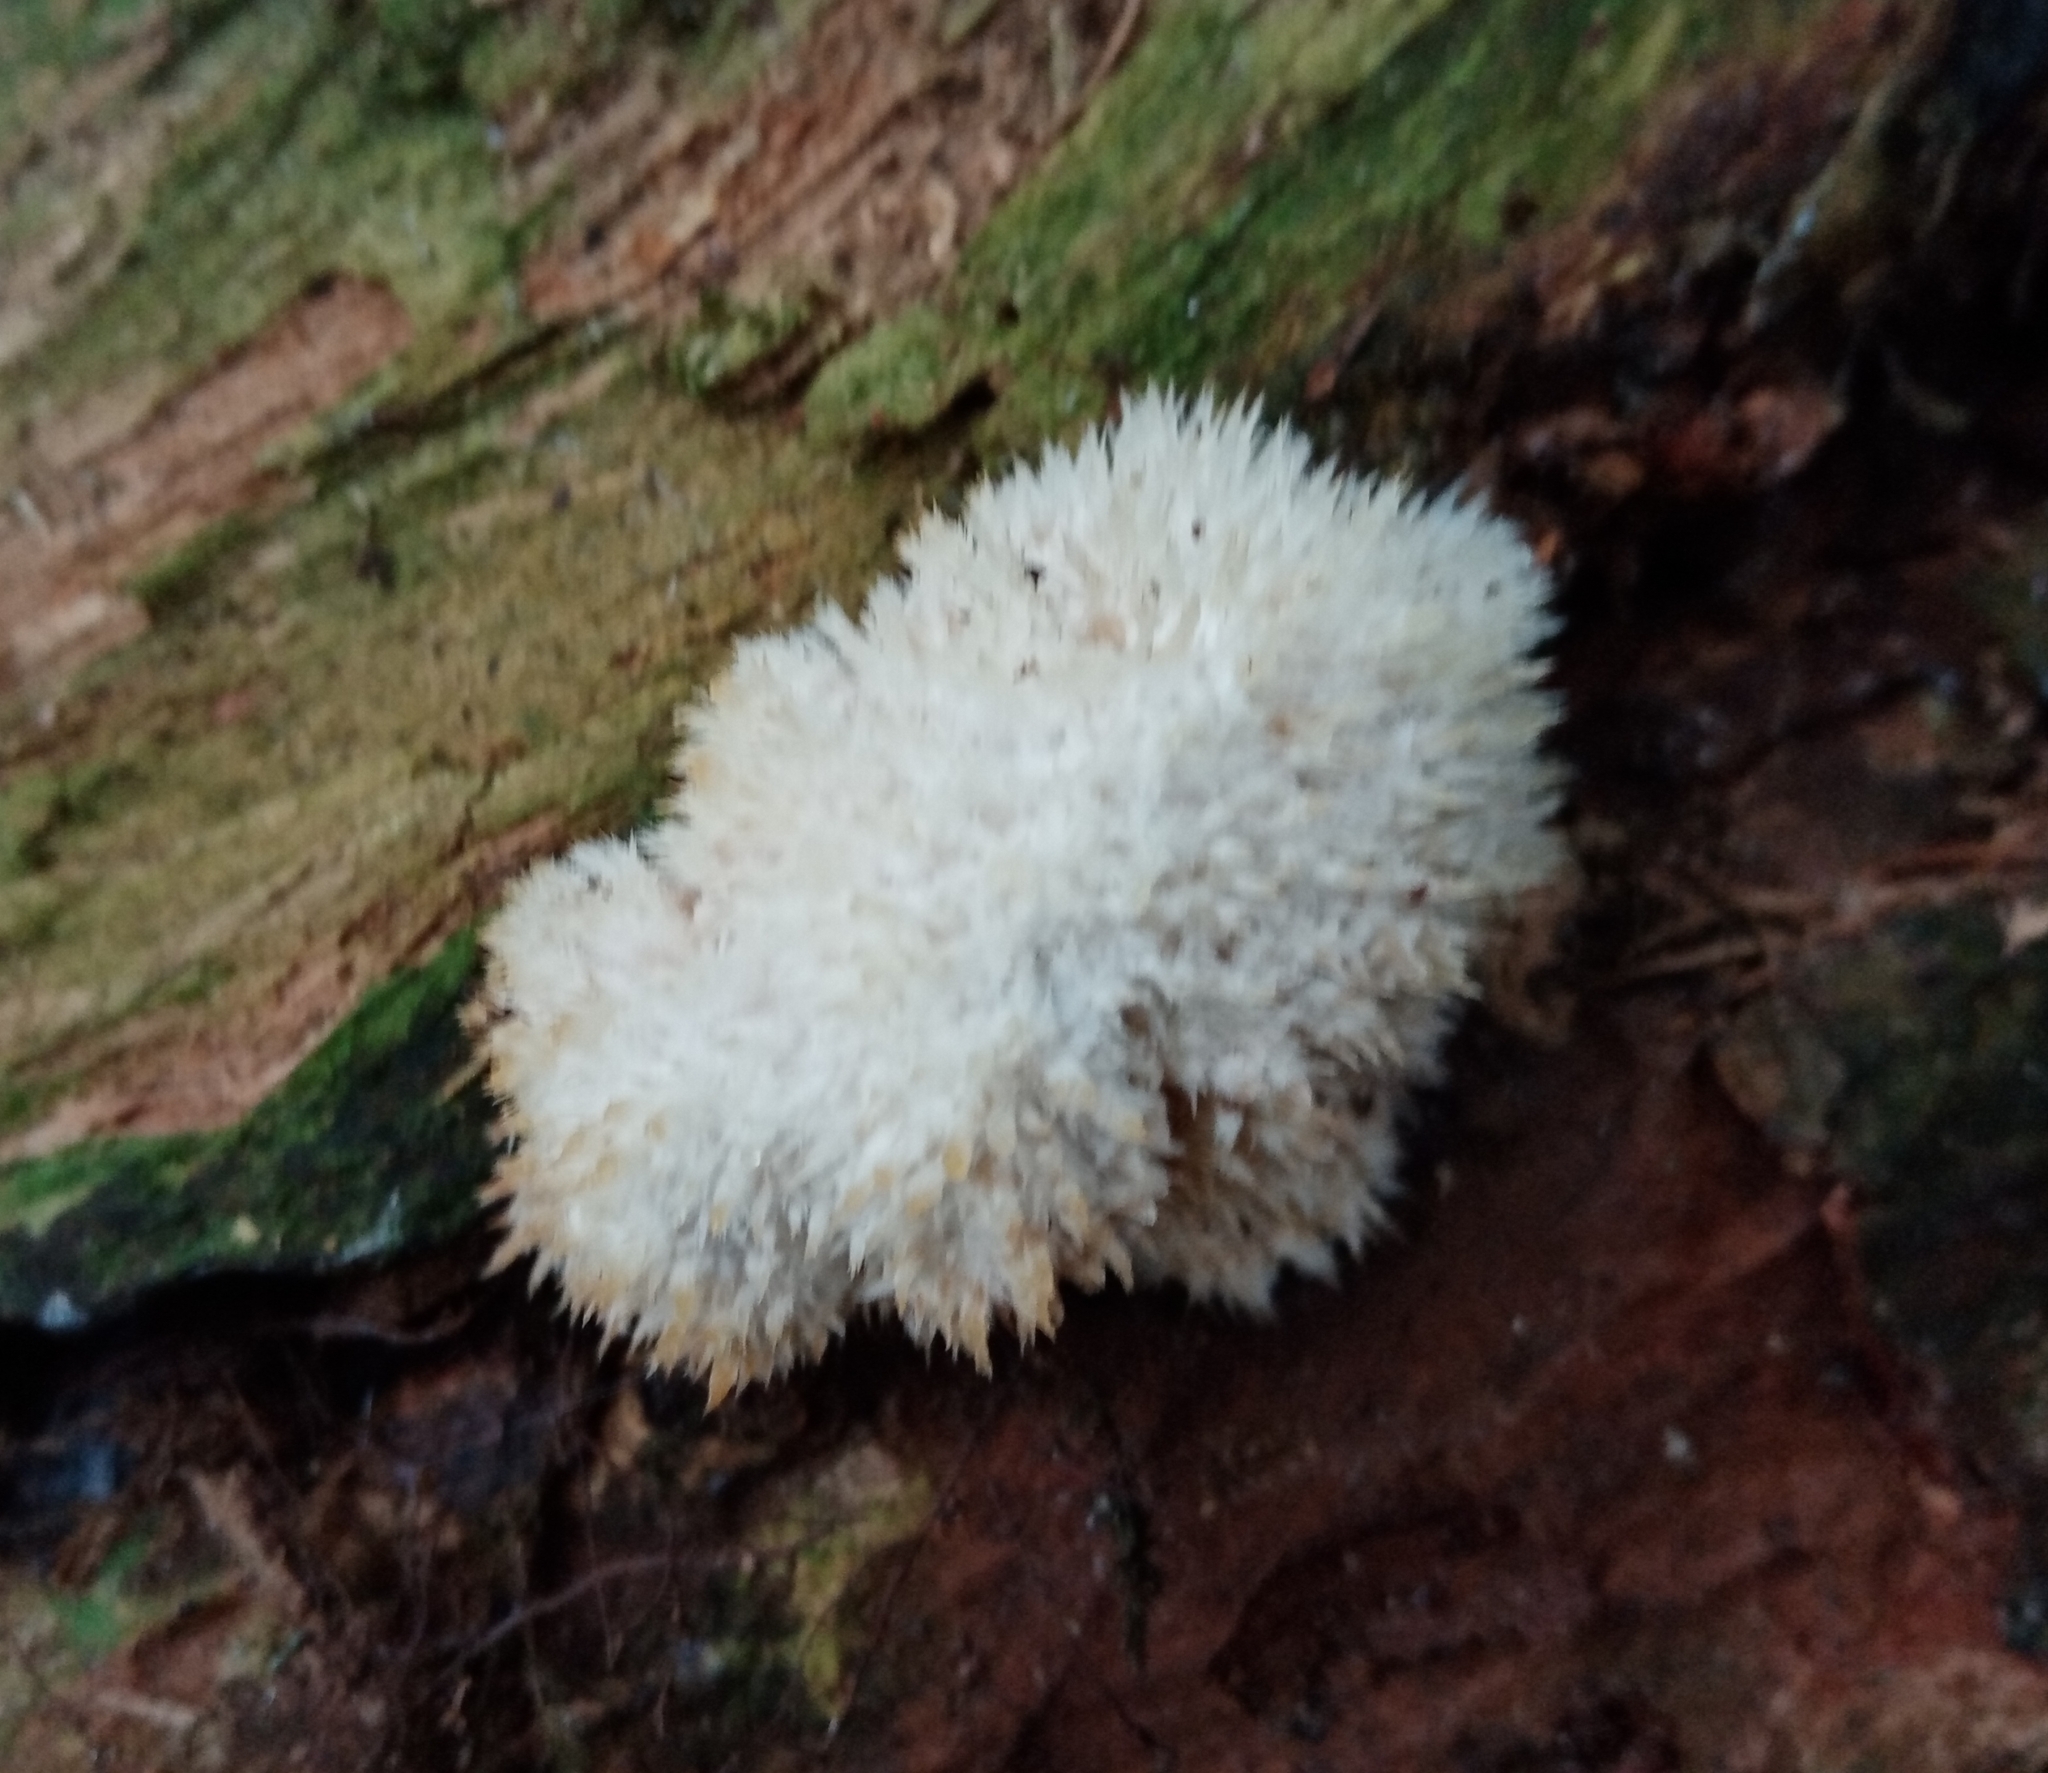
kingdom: Fungi
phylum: Basidiomycota
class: Agaricomycetes
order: Polyporales
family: Dacryobolaceae
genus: Postia
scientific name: Postia ptychogaster
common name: Powderpuff bracket
